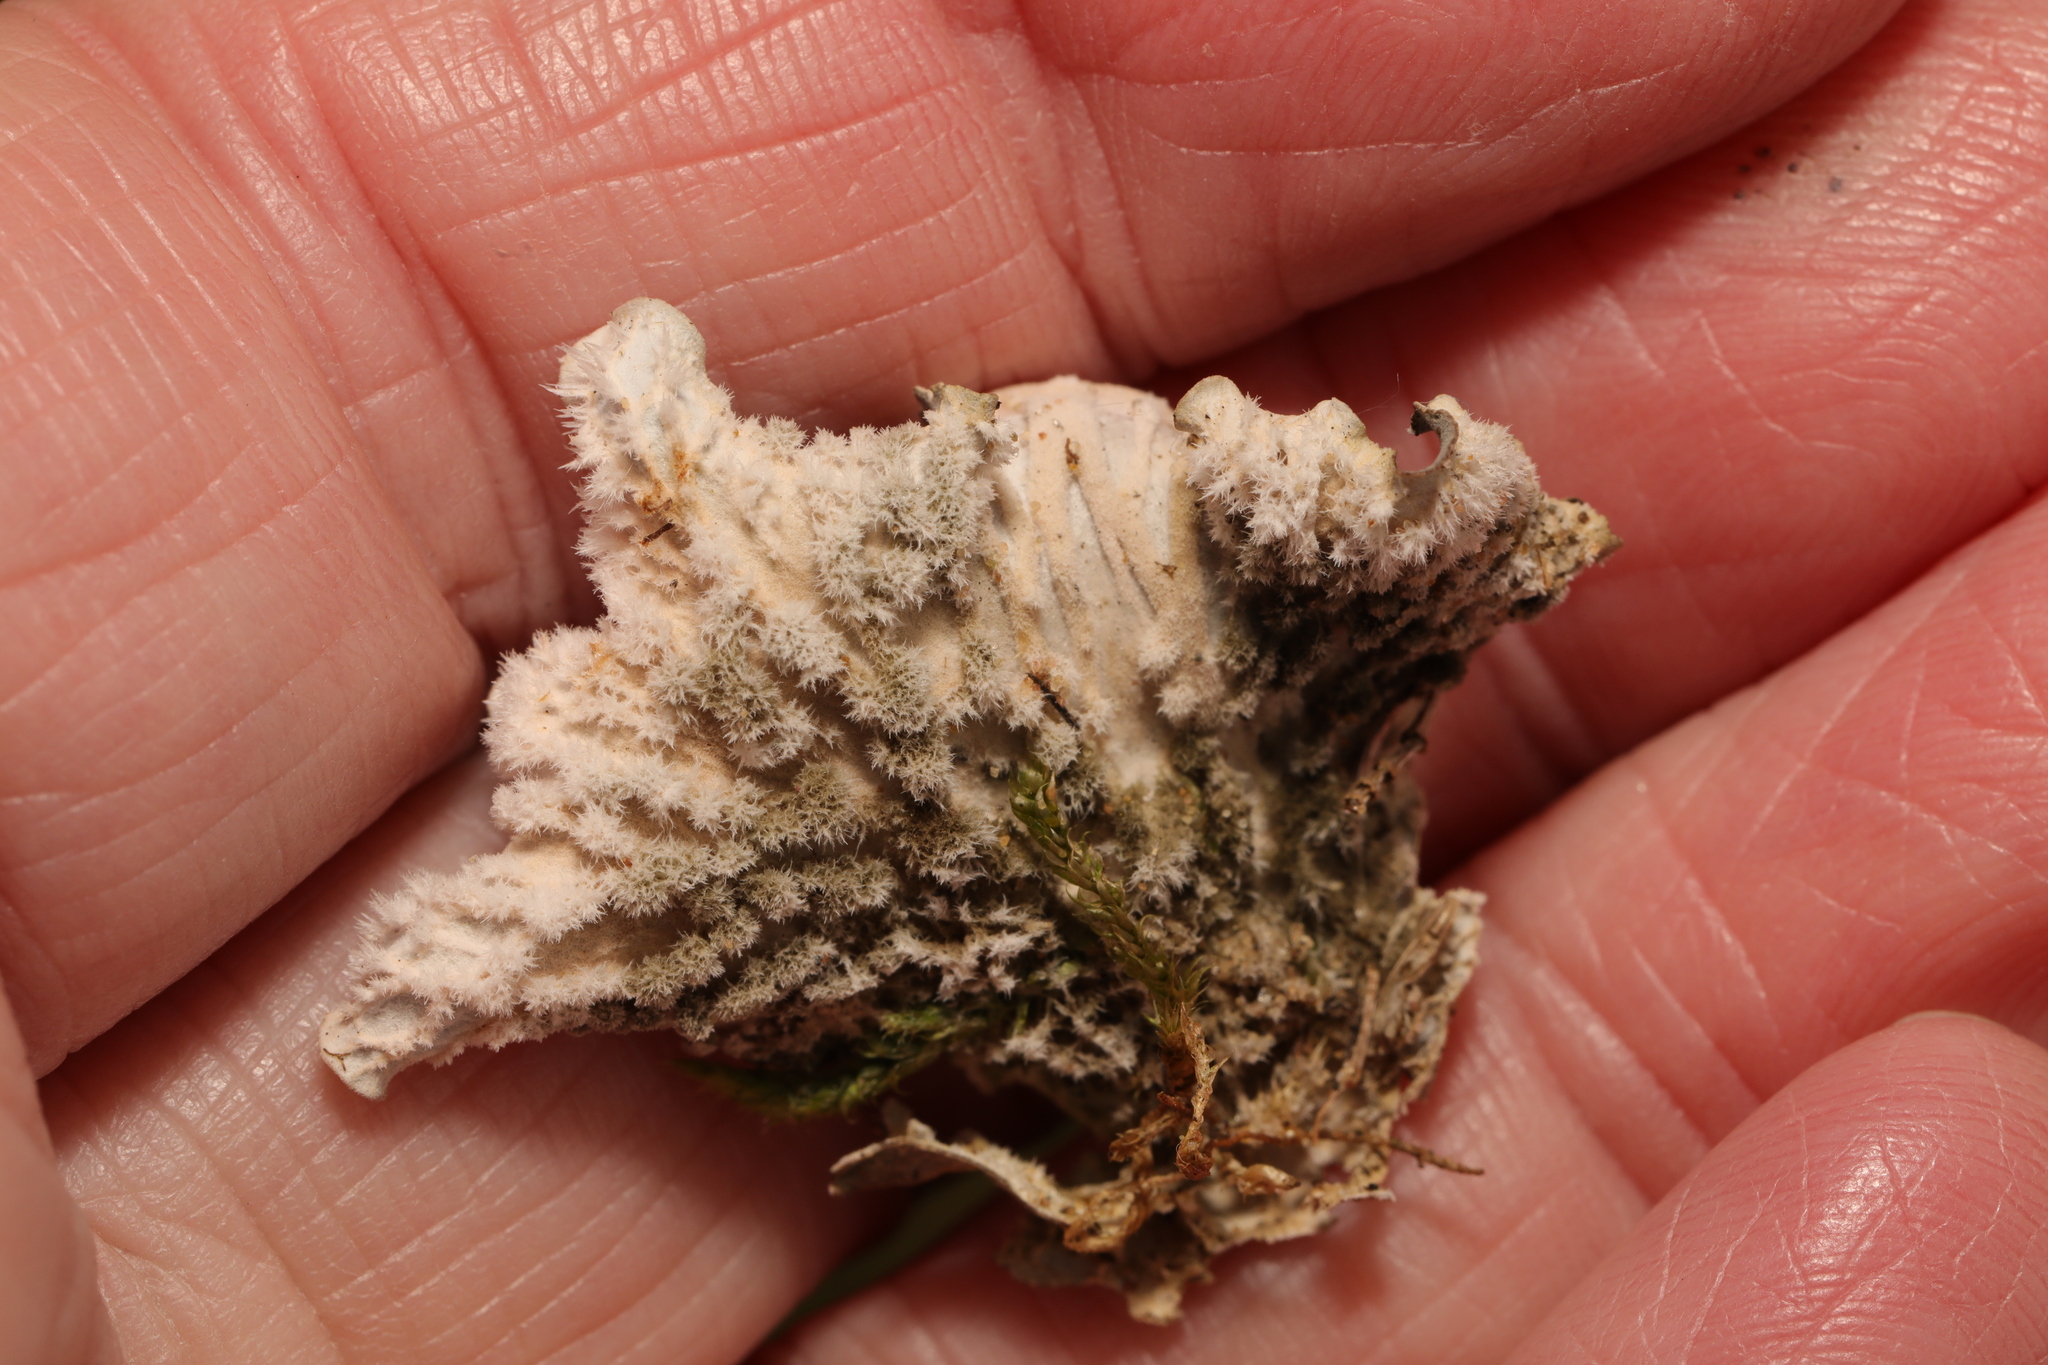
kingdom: Fungi
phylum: Ascomycota
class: Lecanoromycetes
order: Peltigerales
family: Peltigeraceae
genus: Peltigera
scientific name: Peltigera canina
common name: Dog pelt lichen
